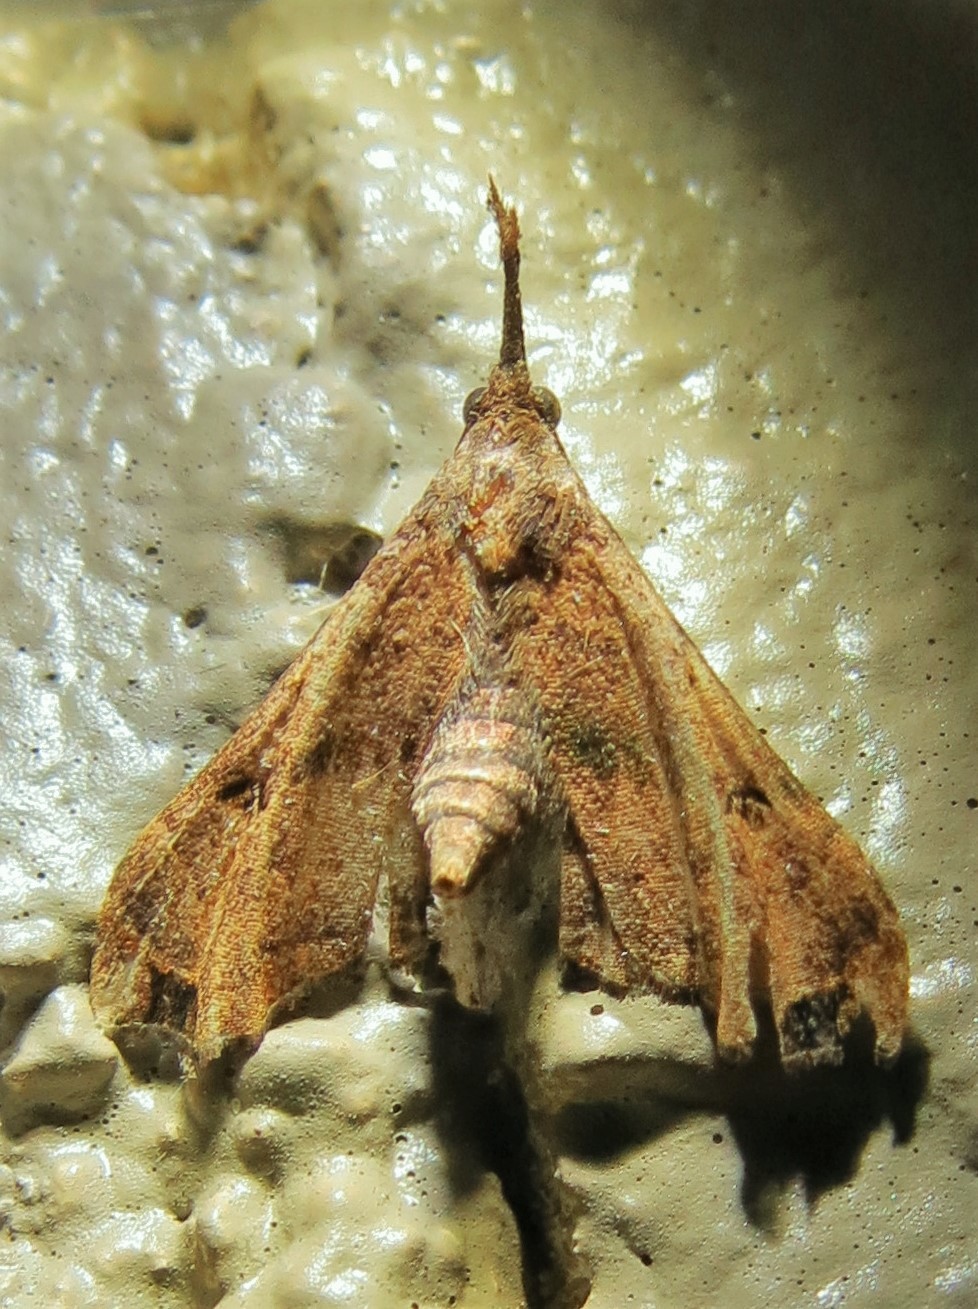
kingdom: Animalia
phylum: Arthropoda
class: Insecta
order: Lepidoptera
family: Erebidae
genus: Palthis
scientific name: Palthis asopialis
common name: Faint-spotted palthis moth
